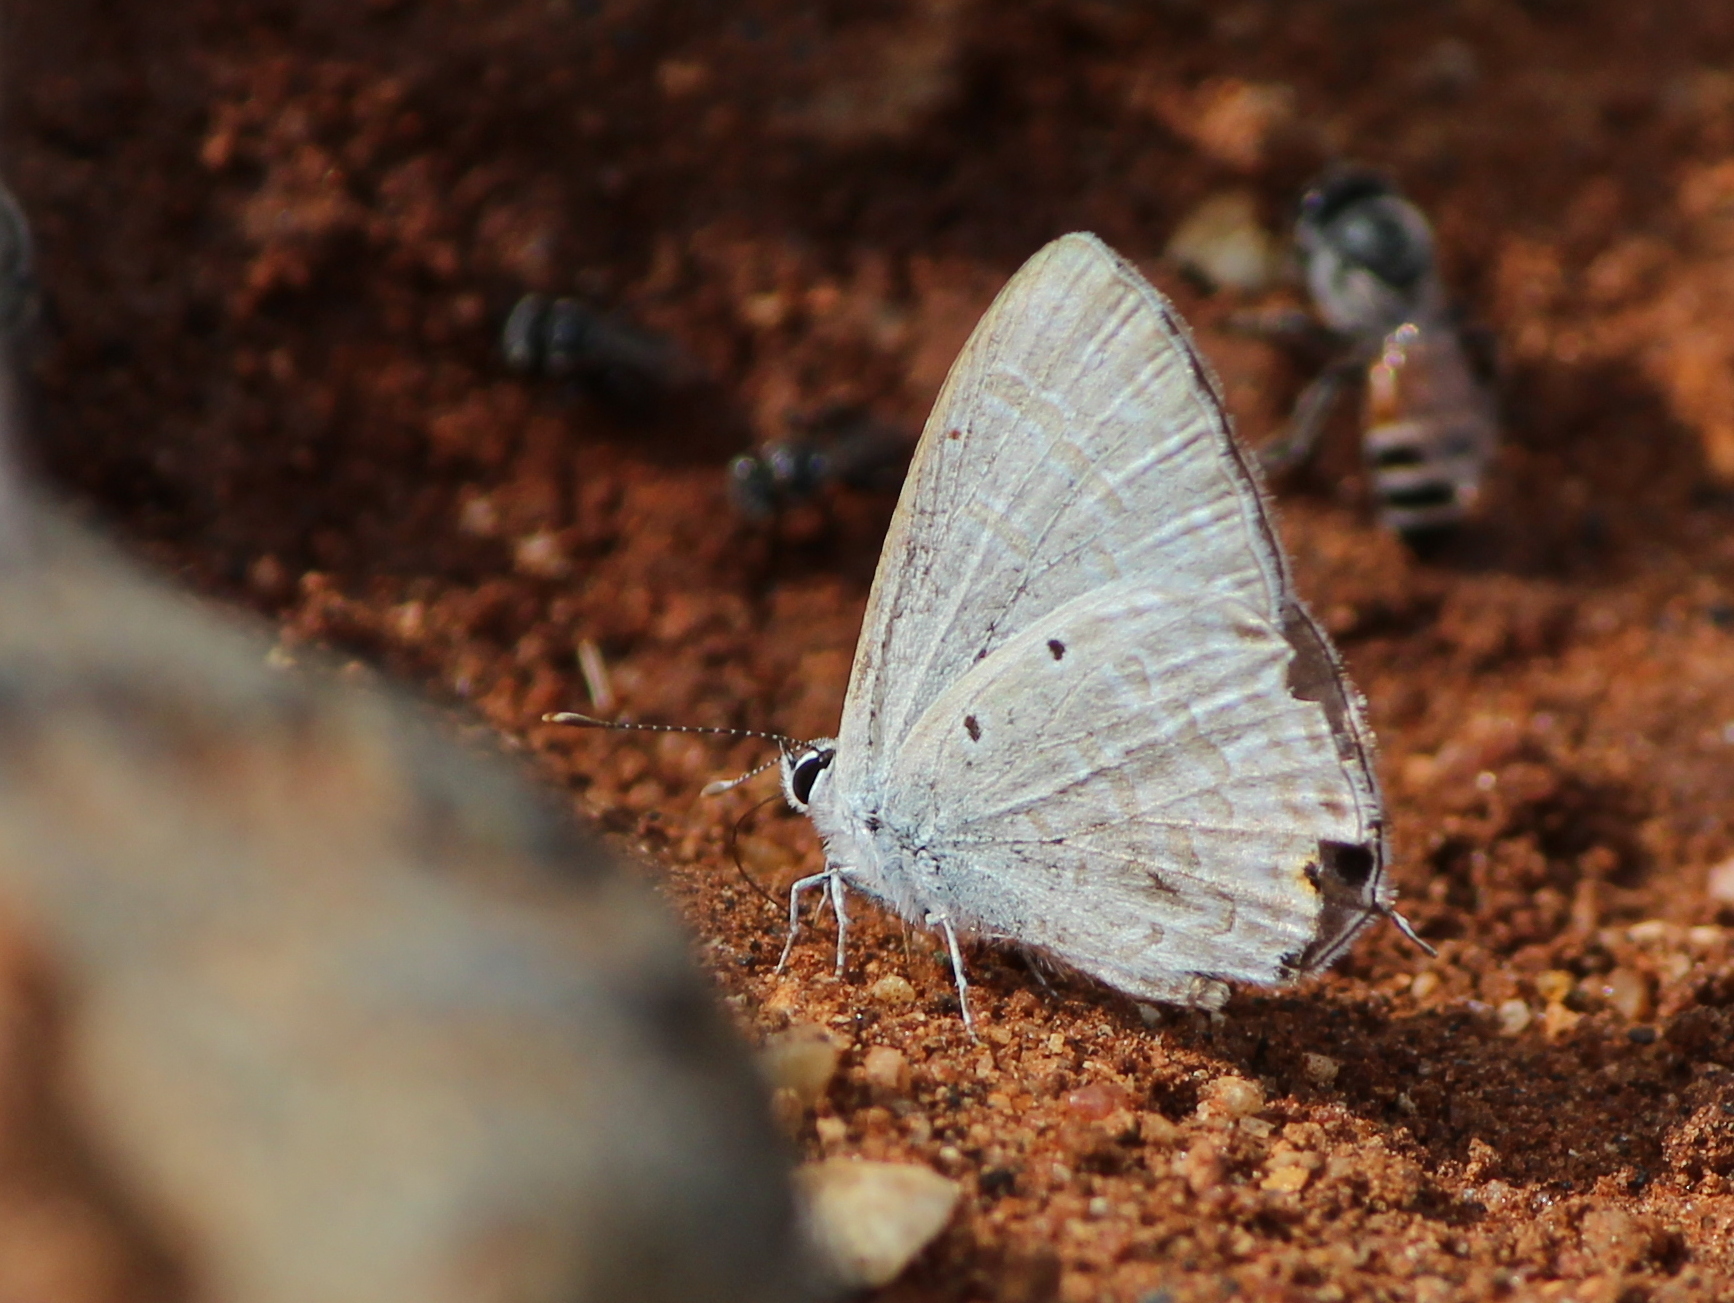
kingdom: Animalia
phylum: Arthropoda
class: Insecta
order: Lepidoptera
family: Lycaenidae
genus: Catochrysops
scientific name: Catochrysops strabo
